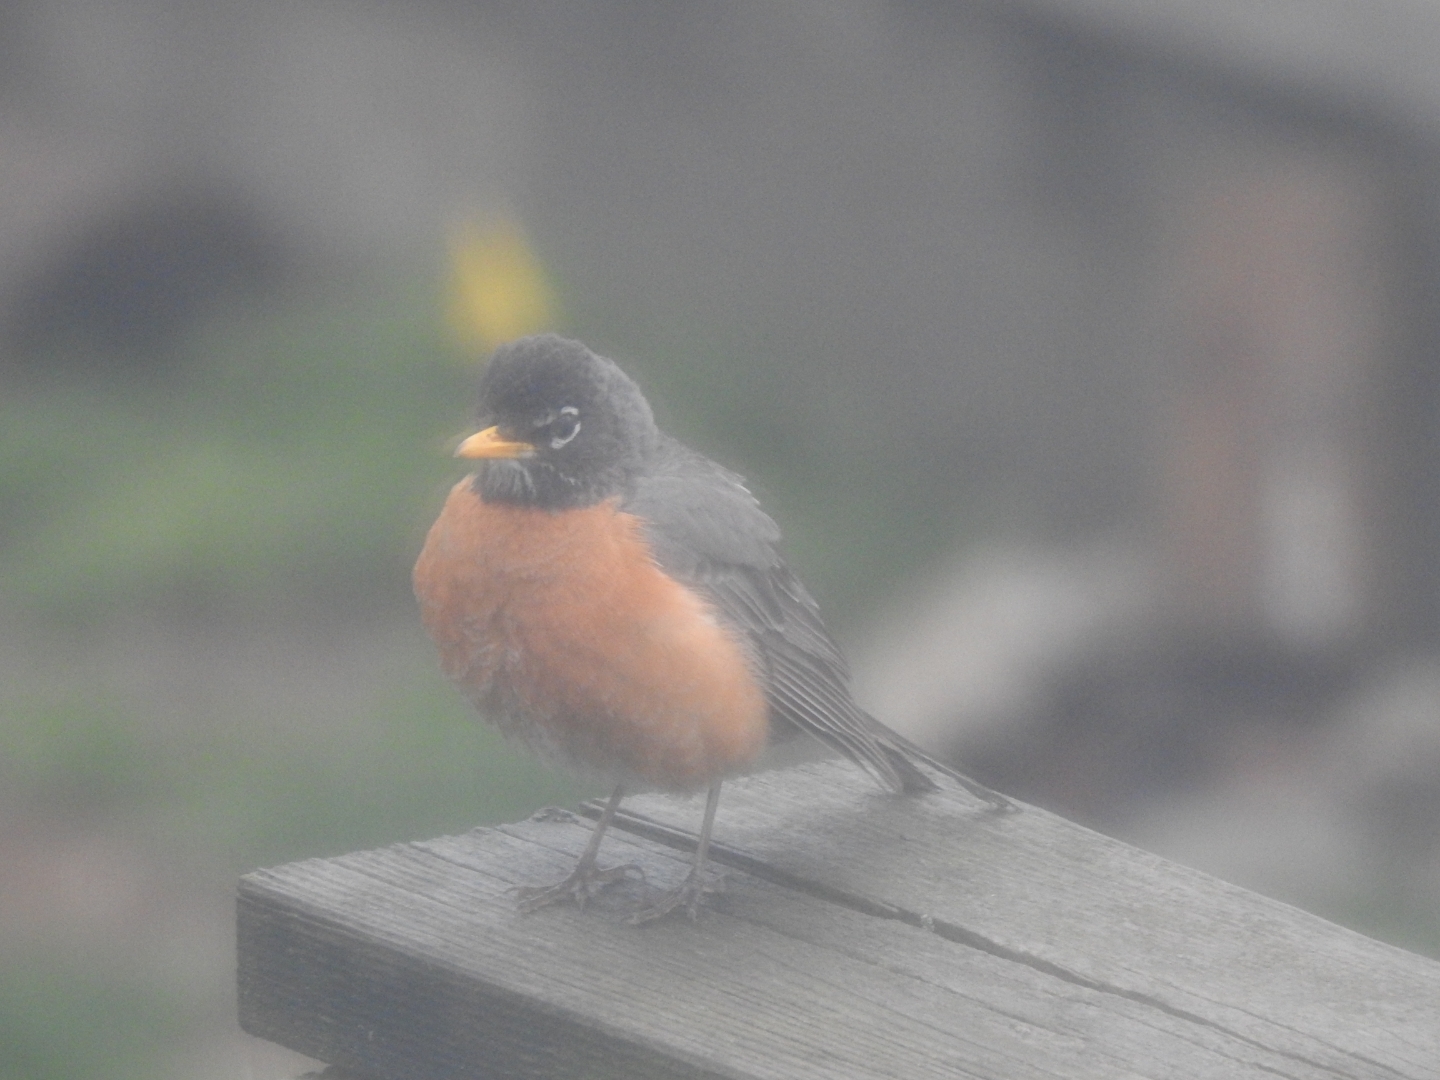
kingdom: Animalia
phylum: Chordata
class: Aves
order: Passeriformes
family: Turdidae
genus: Turdus
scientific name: Turdus migratorius
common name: American robin
